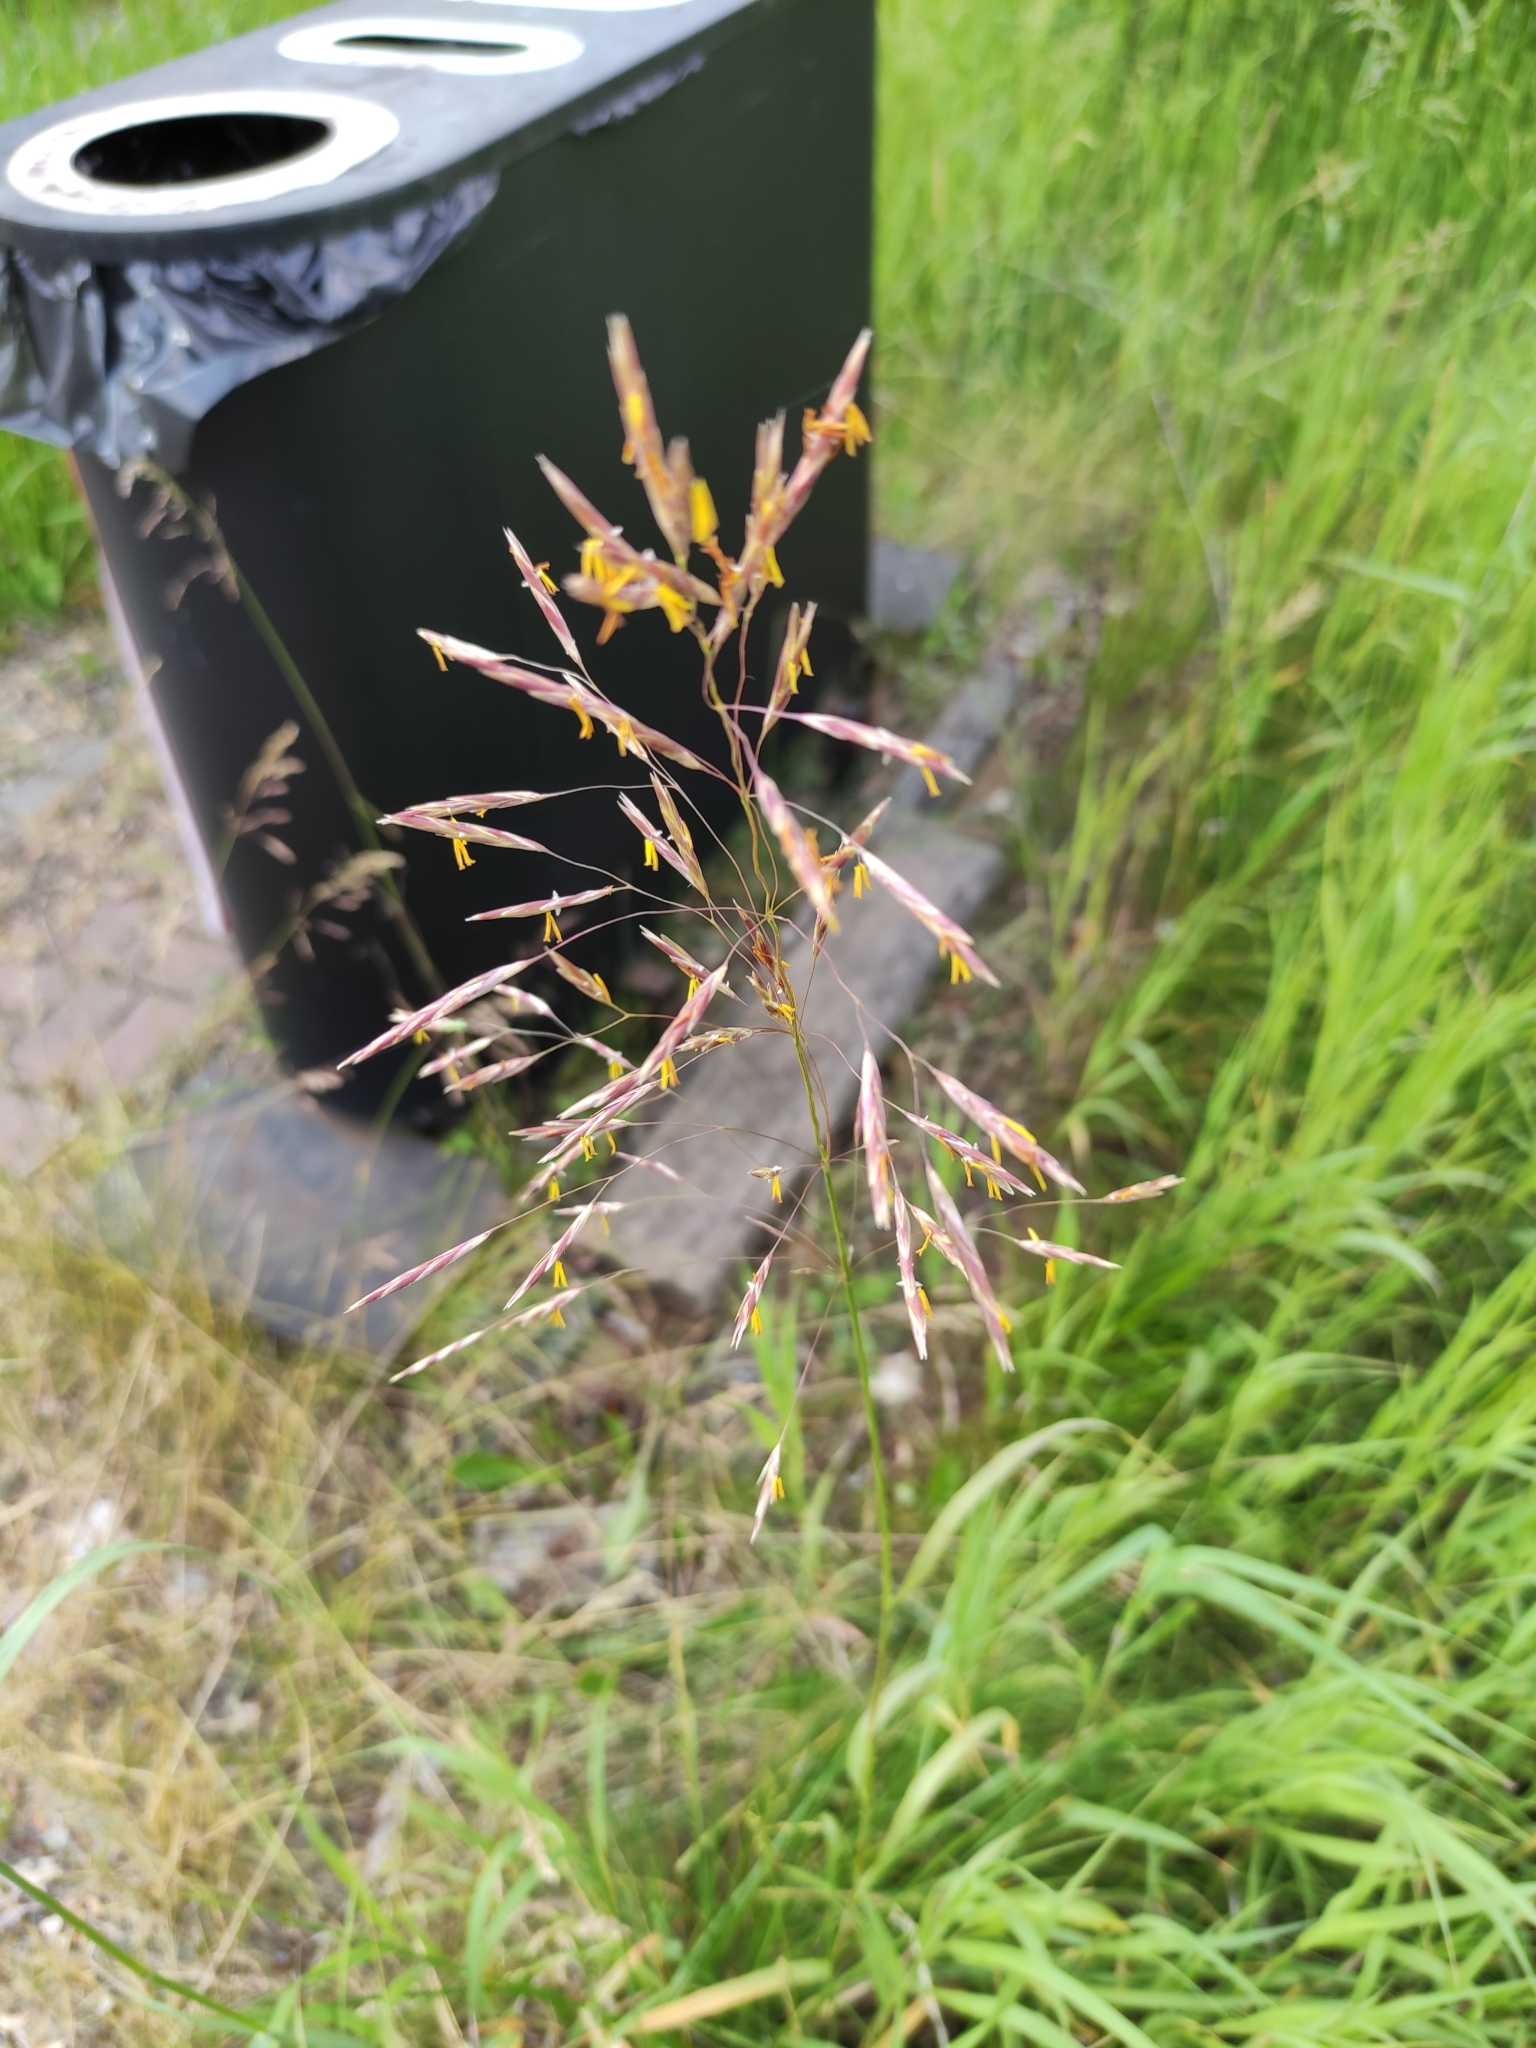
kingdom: Plantae
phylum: Tracheophyta
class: Liliopsida
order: Poales
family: Poaceae
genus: Bromus
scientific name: Bromus inermis
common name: Smooth brome
